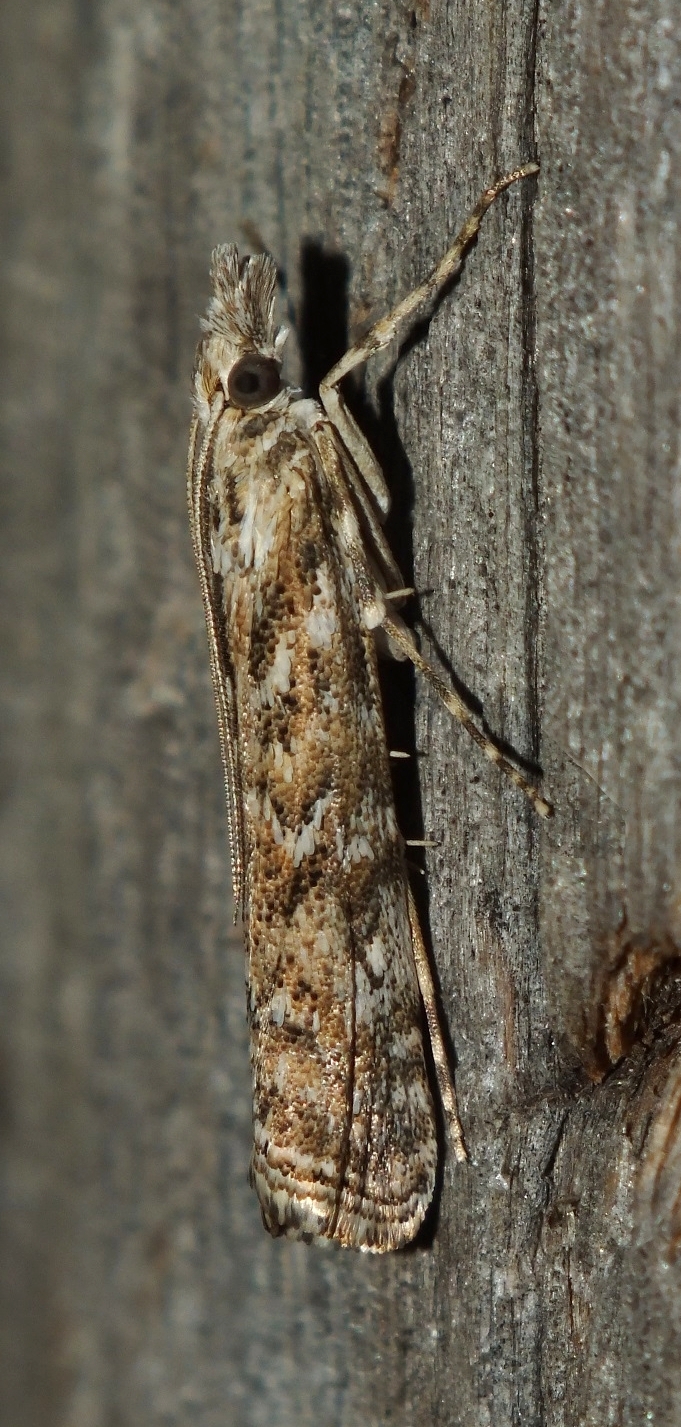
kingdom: Animalia
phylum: Arthropoda
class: Insecta
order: Lepidoptera
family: Crambidae
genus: Talis
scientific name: Talis quercella
